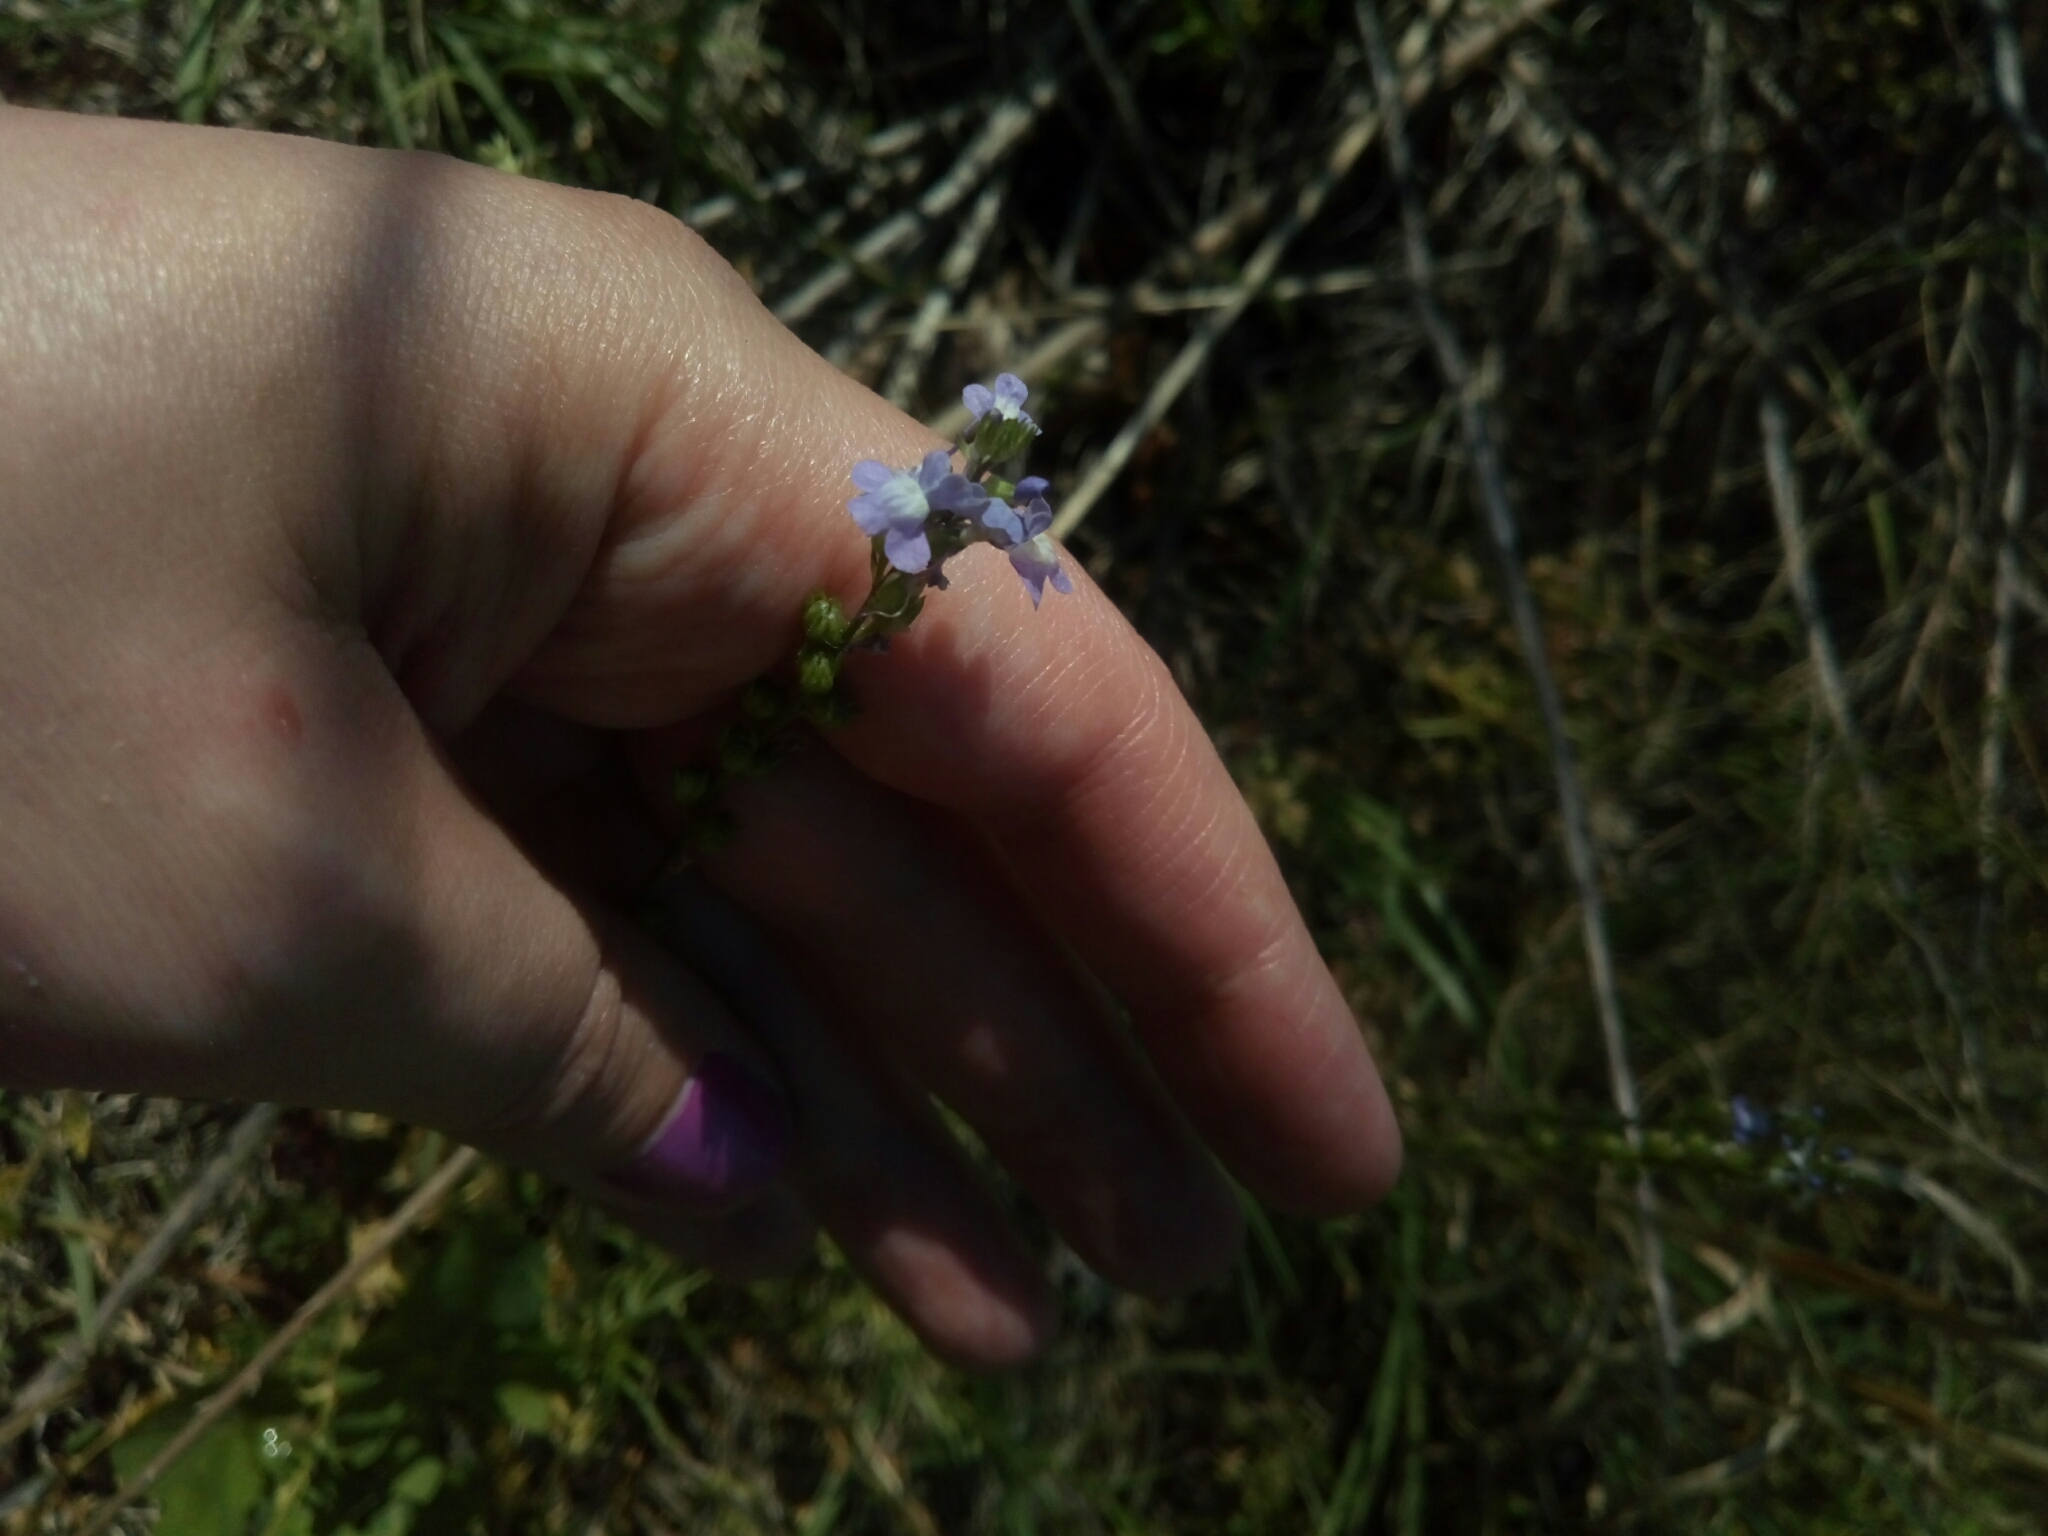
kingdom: Plantae
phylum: Tracheophyta
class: Magnoliopsida
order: Lamiales
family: Plantaginaceae
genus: Nuttallanthus
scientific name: Nuttallanthus canadensis
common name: Blue toadflax
